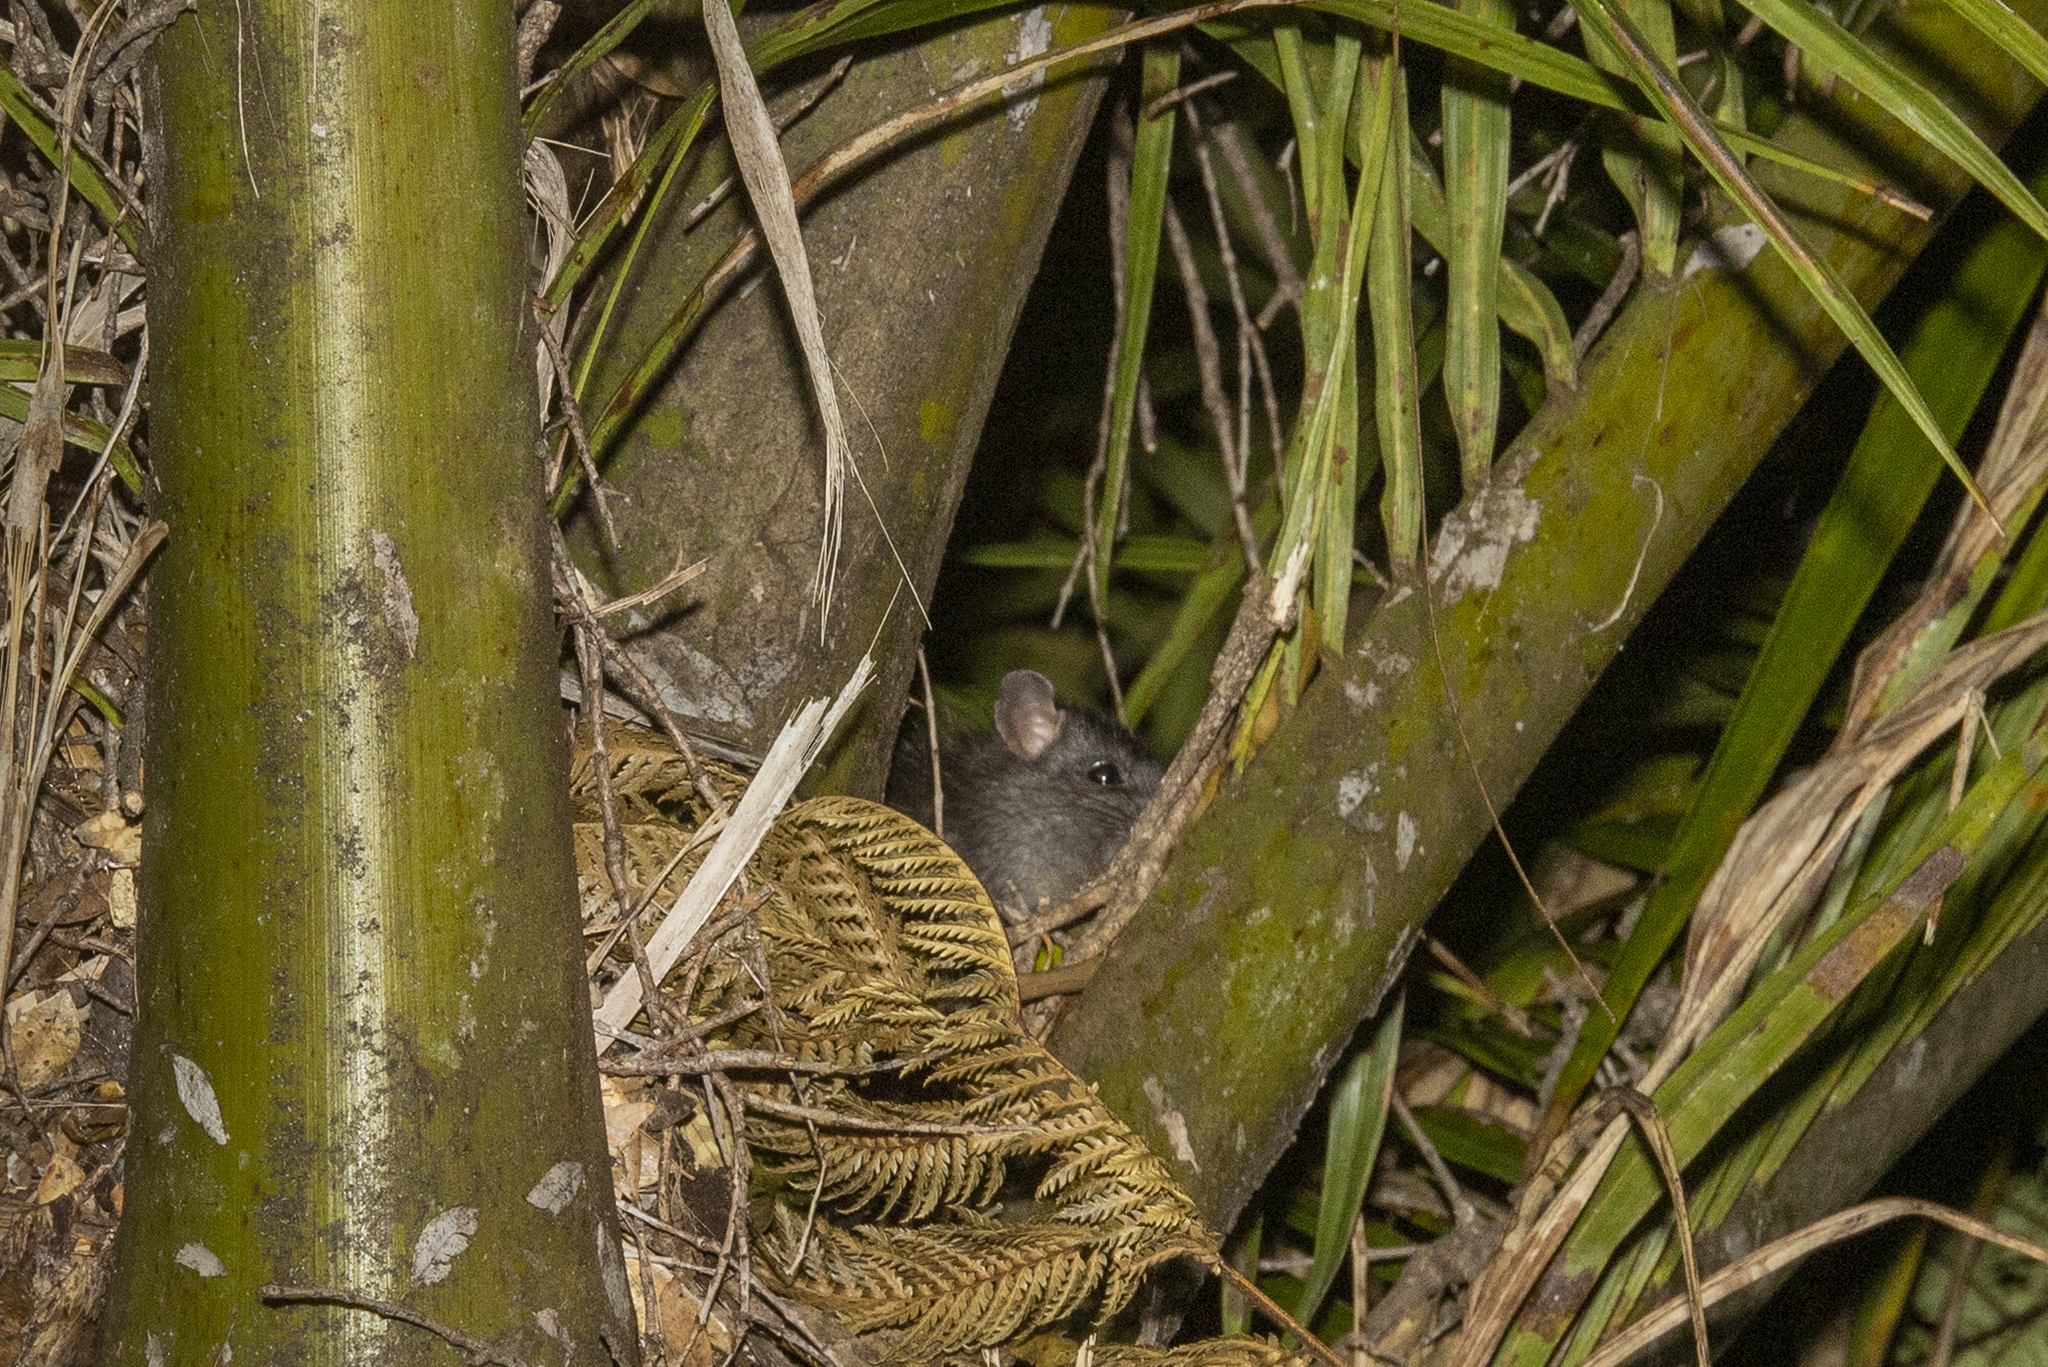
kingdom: Animalia
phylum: Chordata
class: Mammalia
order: Rodentia
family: Muridae
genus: Rattus
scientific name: Rattus rattus
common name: Black rat
